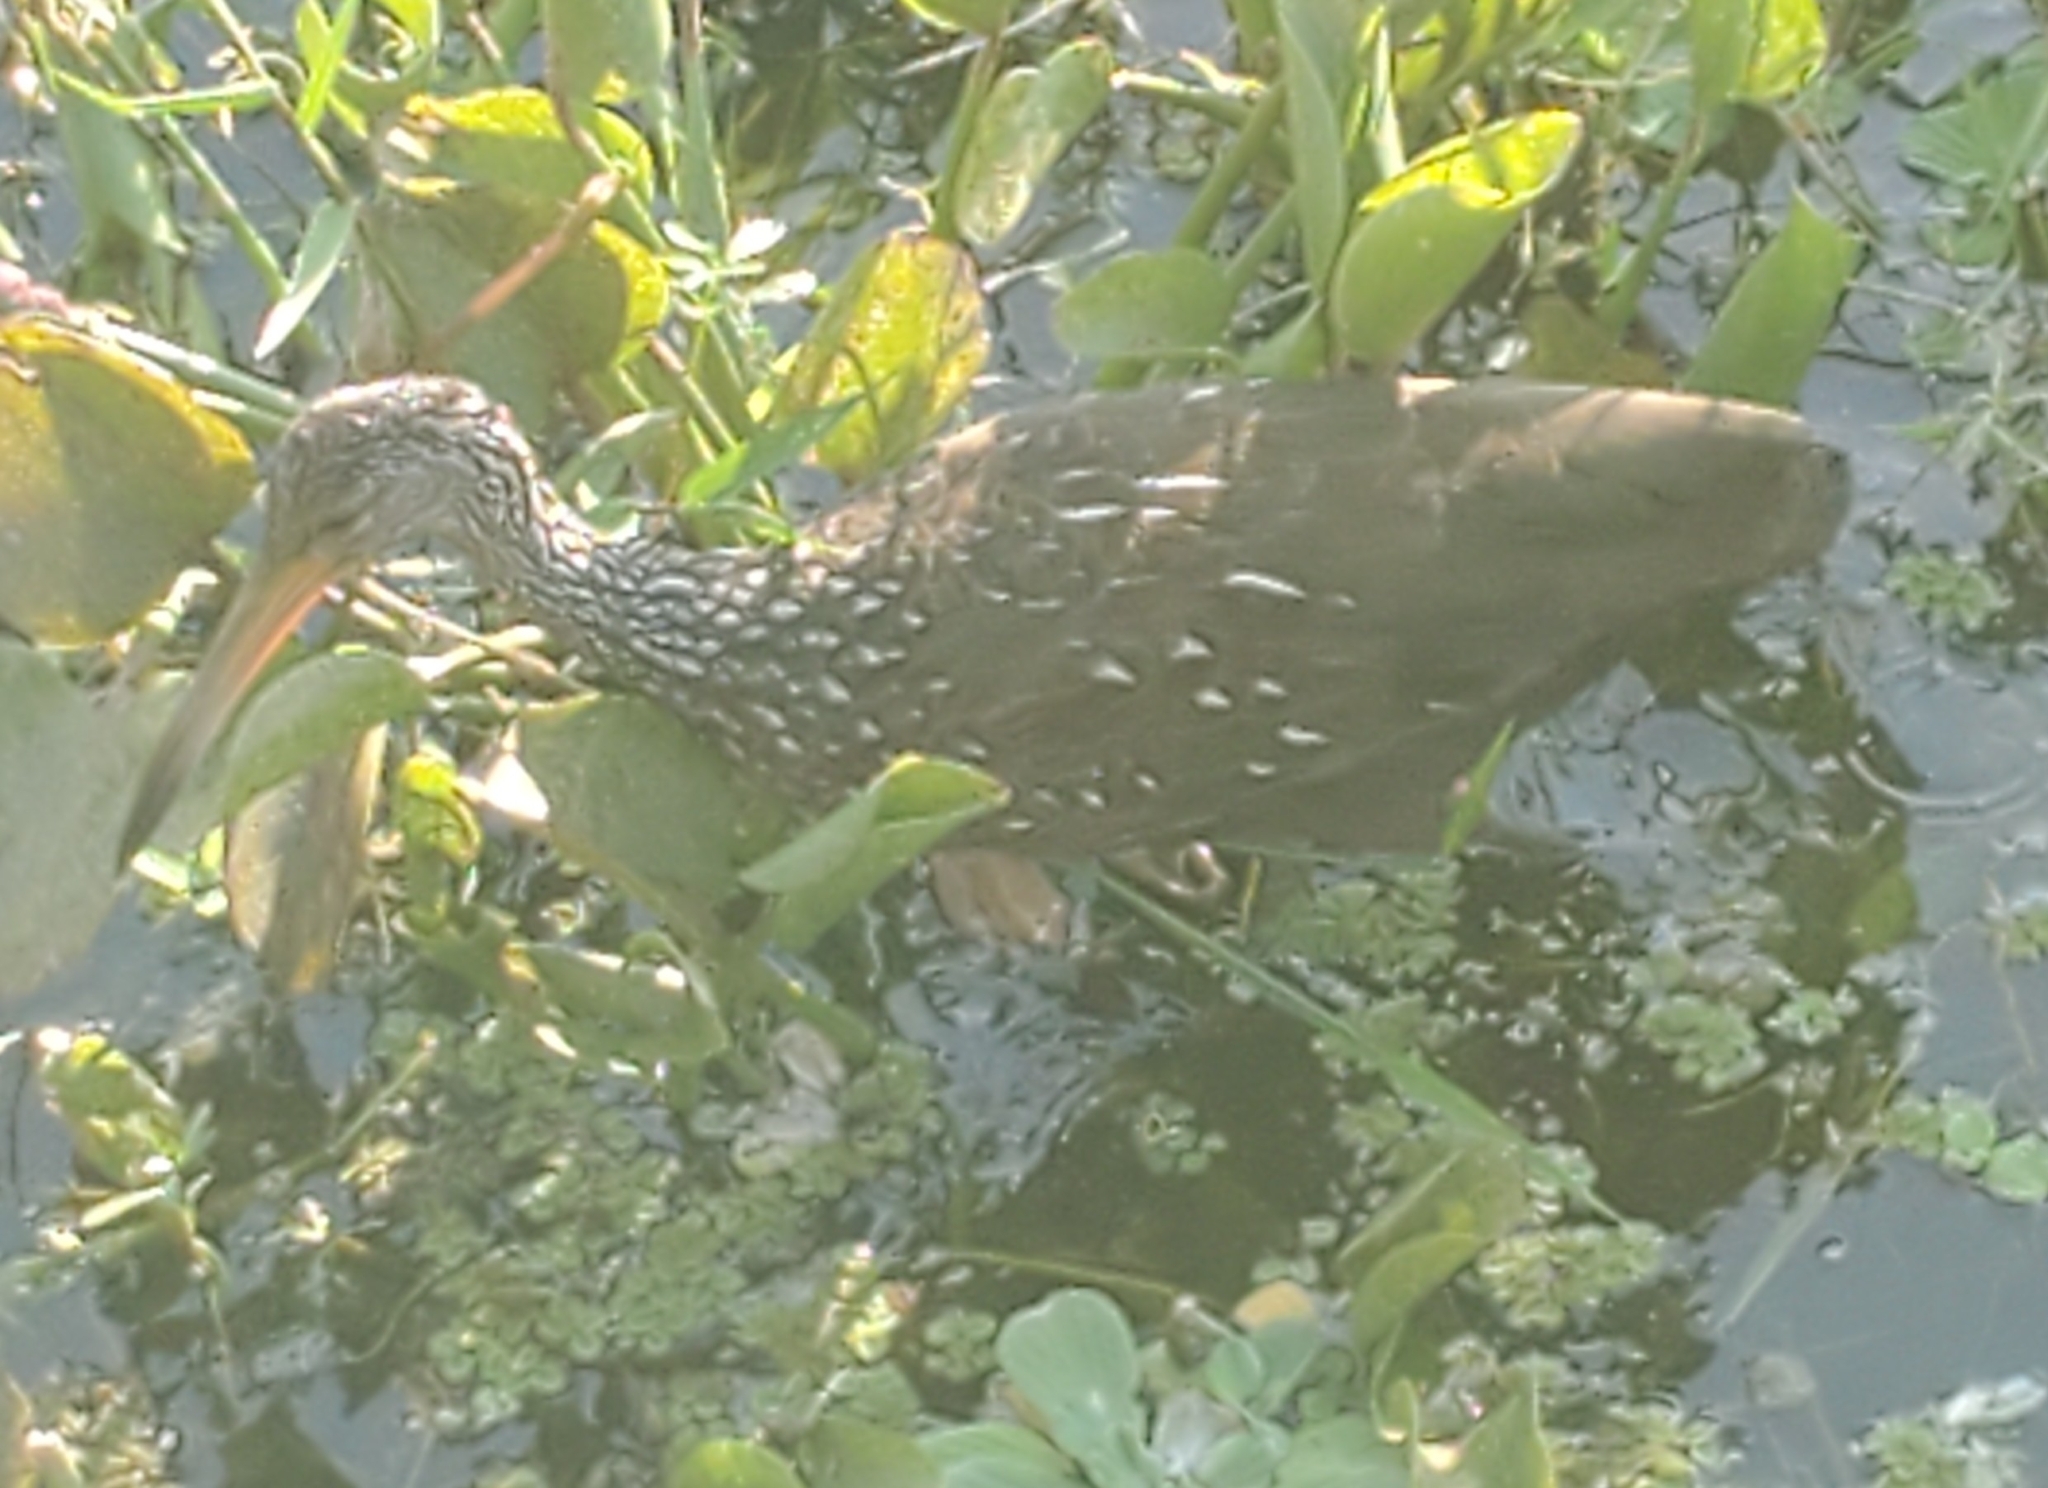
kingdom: Animalia
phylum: Chordata
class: Aves
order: Gruiformes
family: Aramidae
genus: Aramus
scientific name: Aramus guarauna
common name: Limpkin
